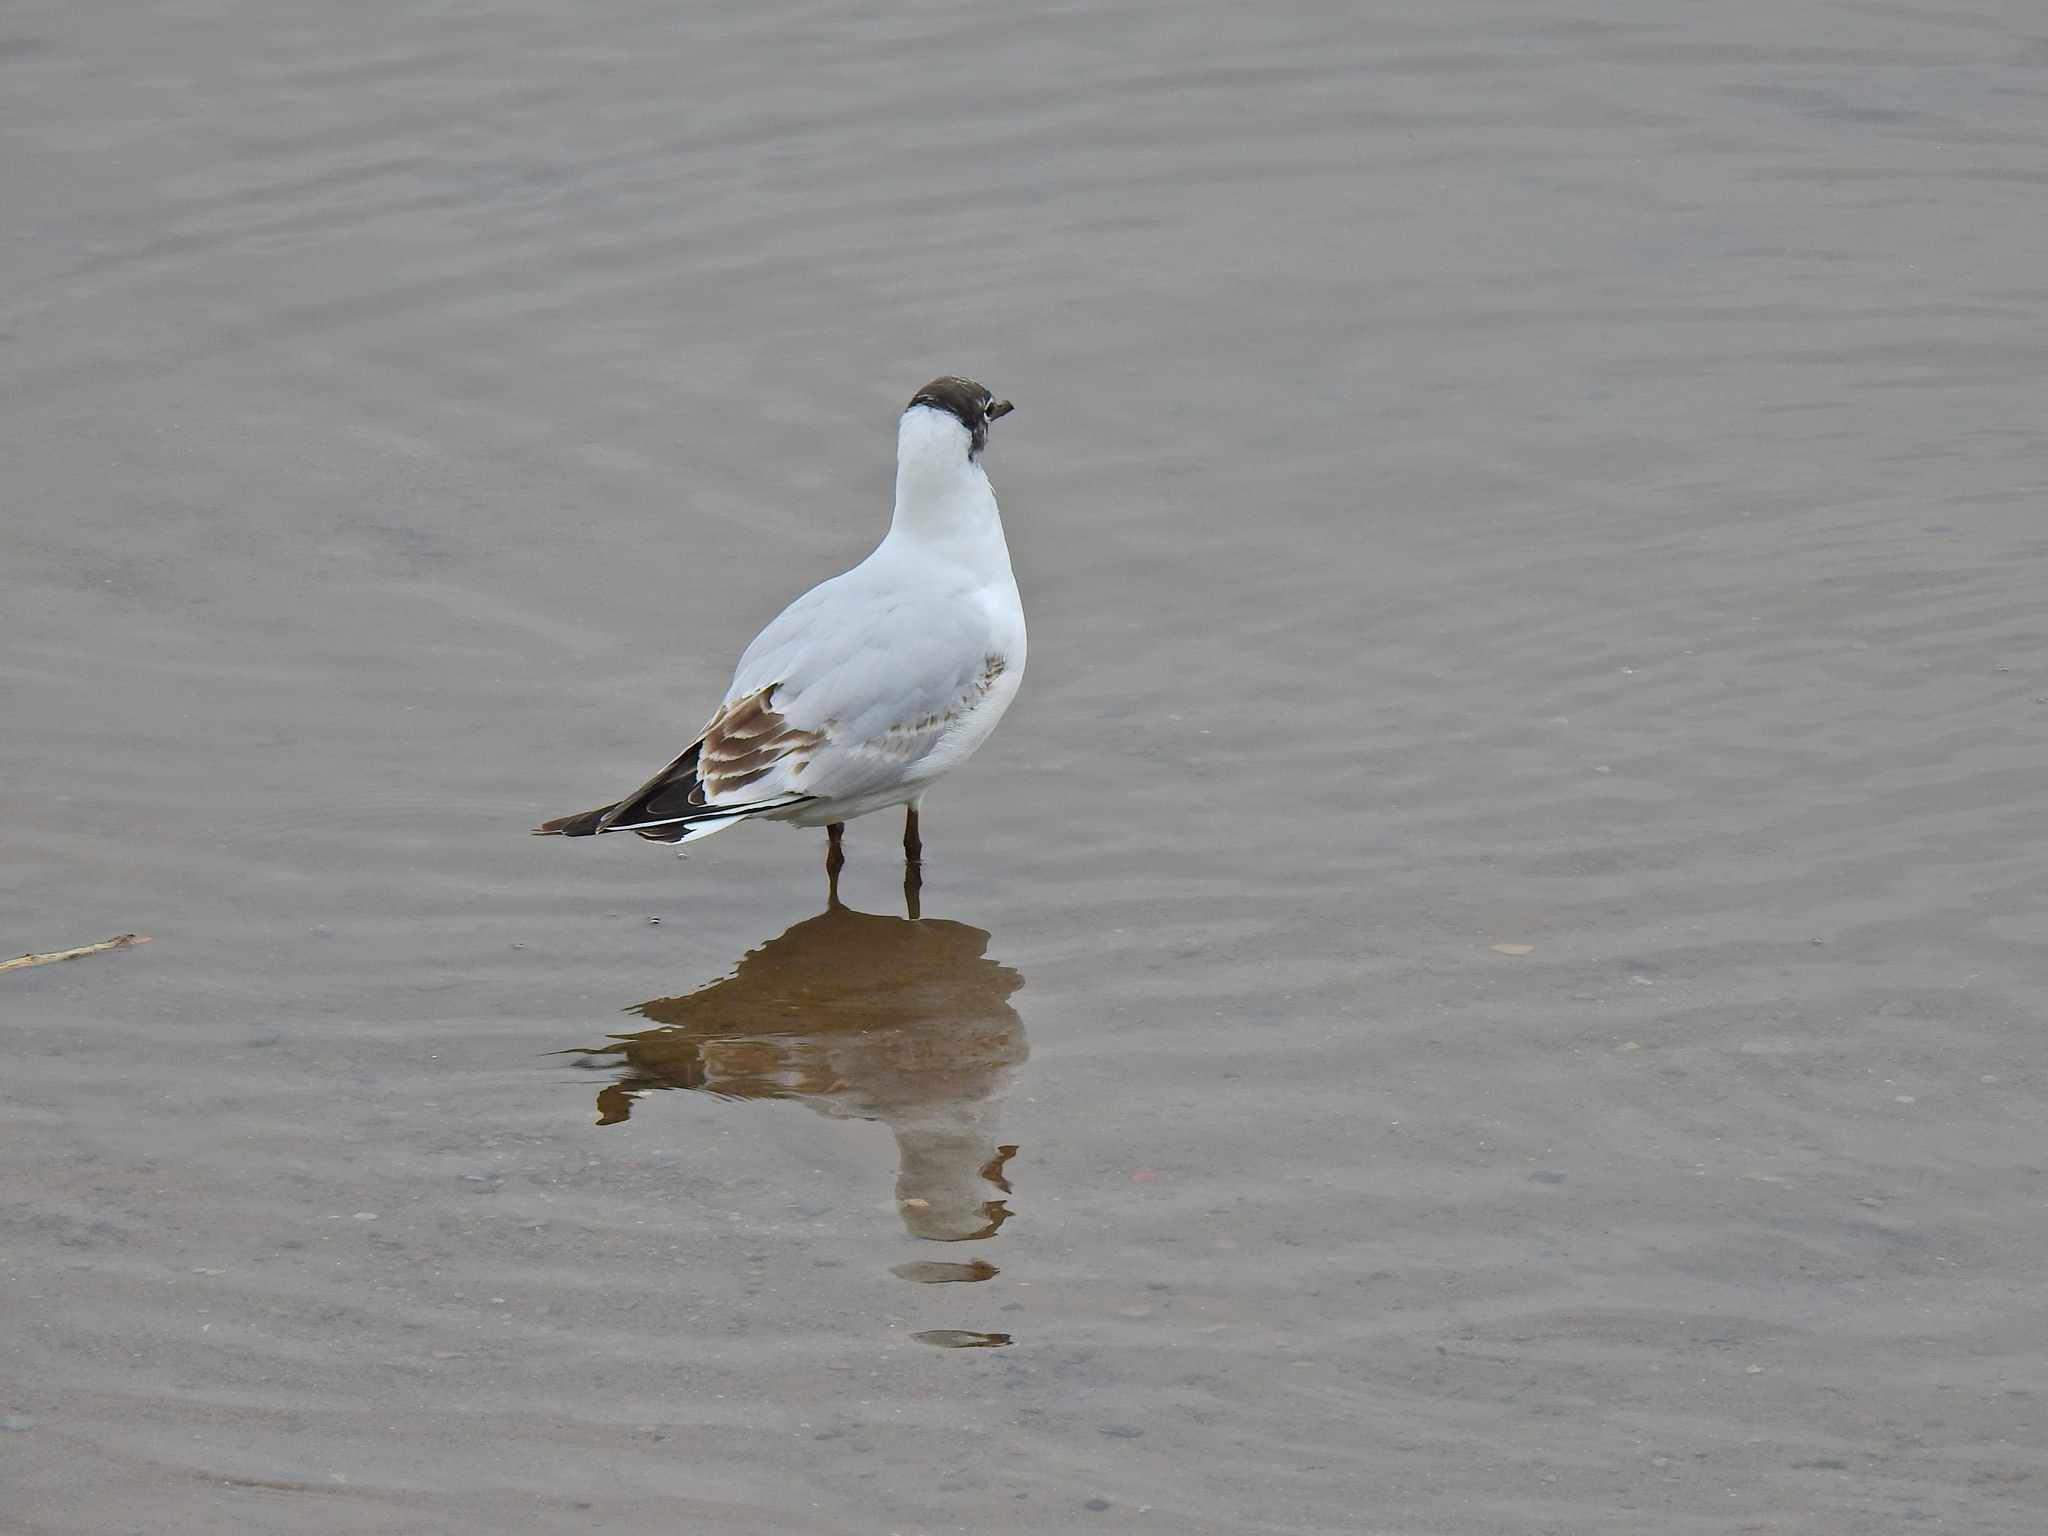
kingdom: Animalia
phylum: Chordata
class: Aves
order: Charadriiformes
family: Laridae
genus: Chroicocephalus
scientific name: Chroicocephalus ridibundus
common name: Black-headed gull
